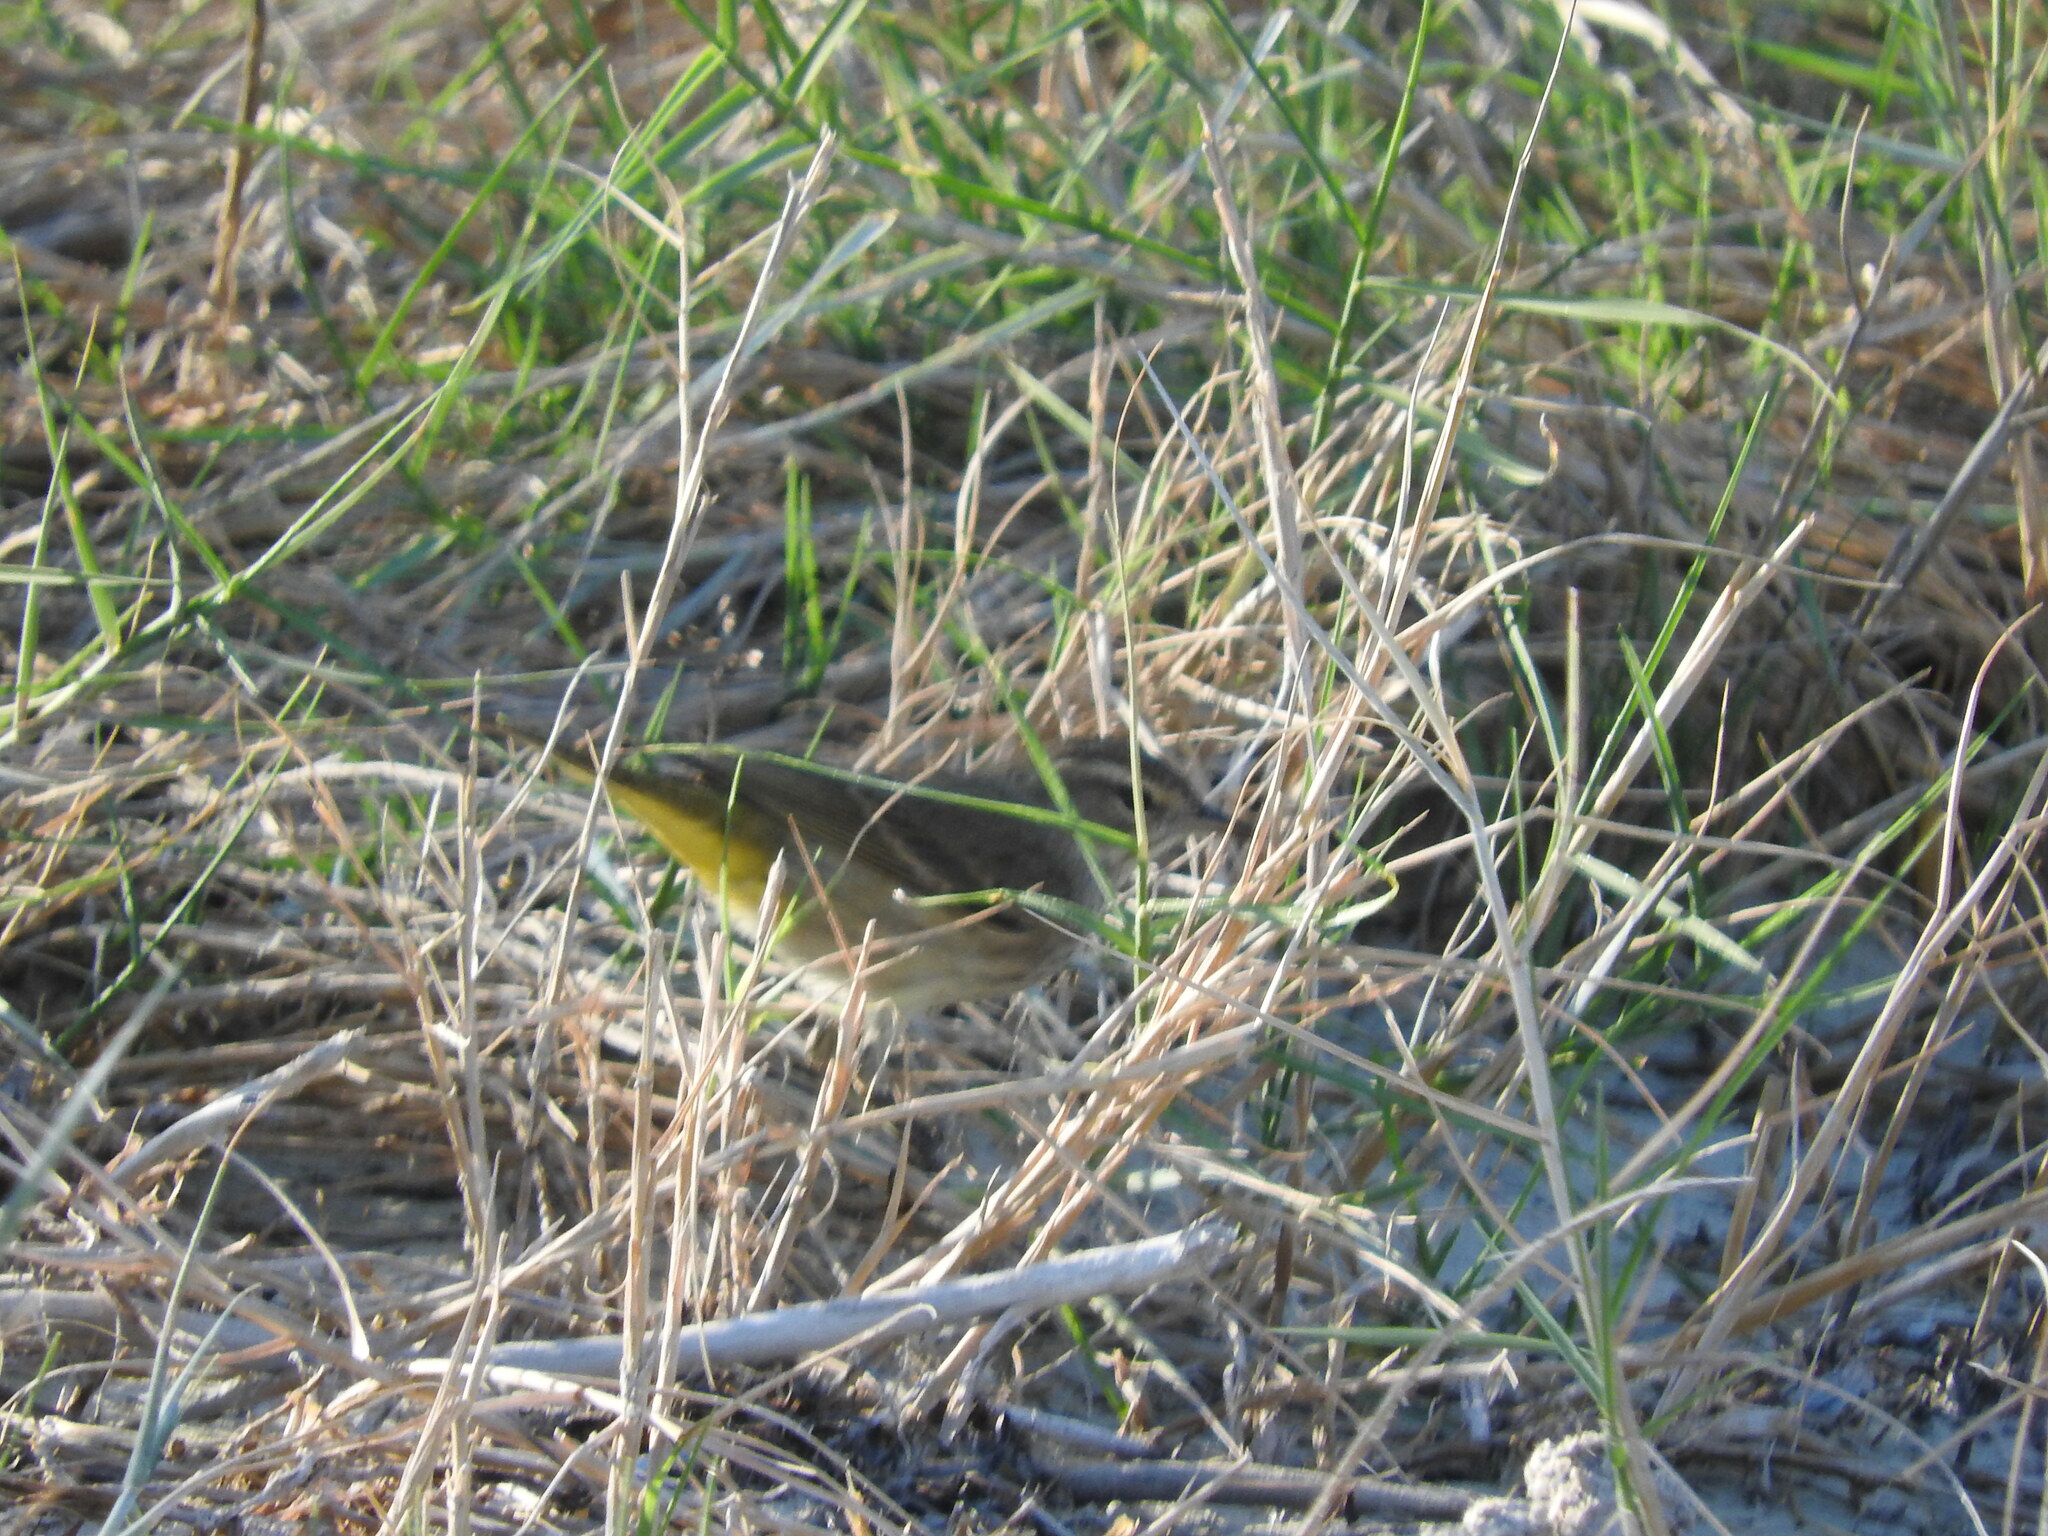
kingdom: Animalia
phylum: Chordata
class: Aves
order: Passeriformes
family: Parulidae
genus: Setophaga
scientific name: Setophaga palmarum
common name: Palm warbler
